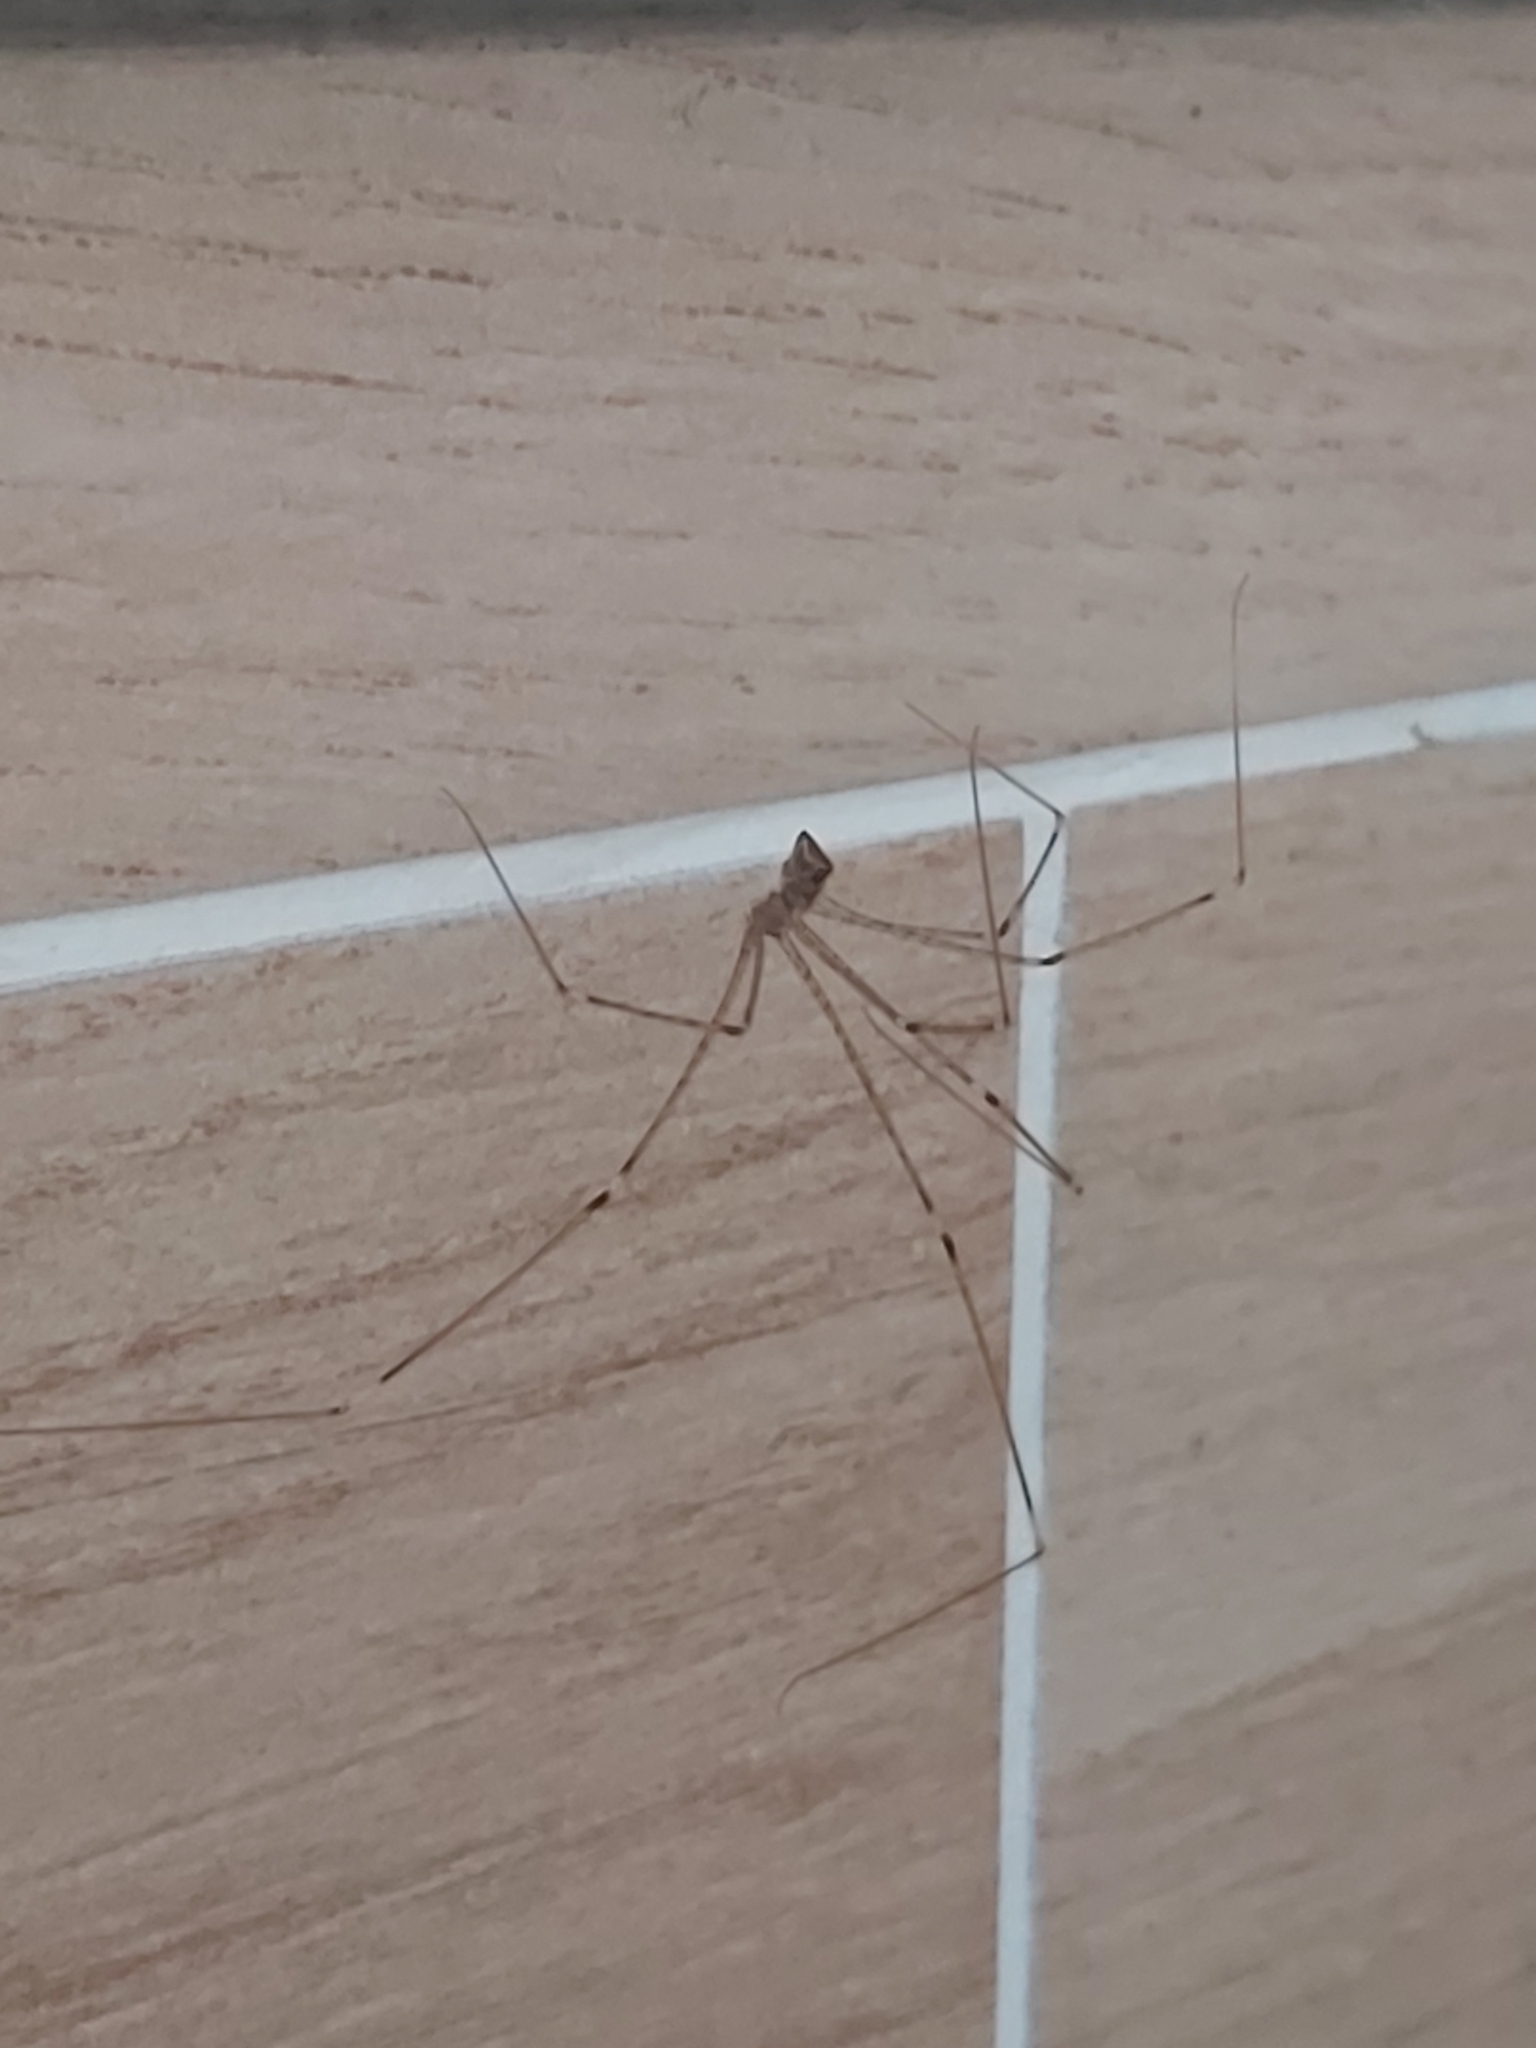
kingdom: Animalia
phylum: Arthropoda
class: Arachnida
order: Araneae
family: Pholcidae
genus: Crossopriza
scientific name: Crossopriza lyoni
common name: Cellar spiders
